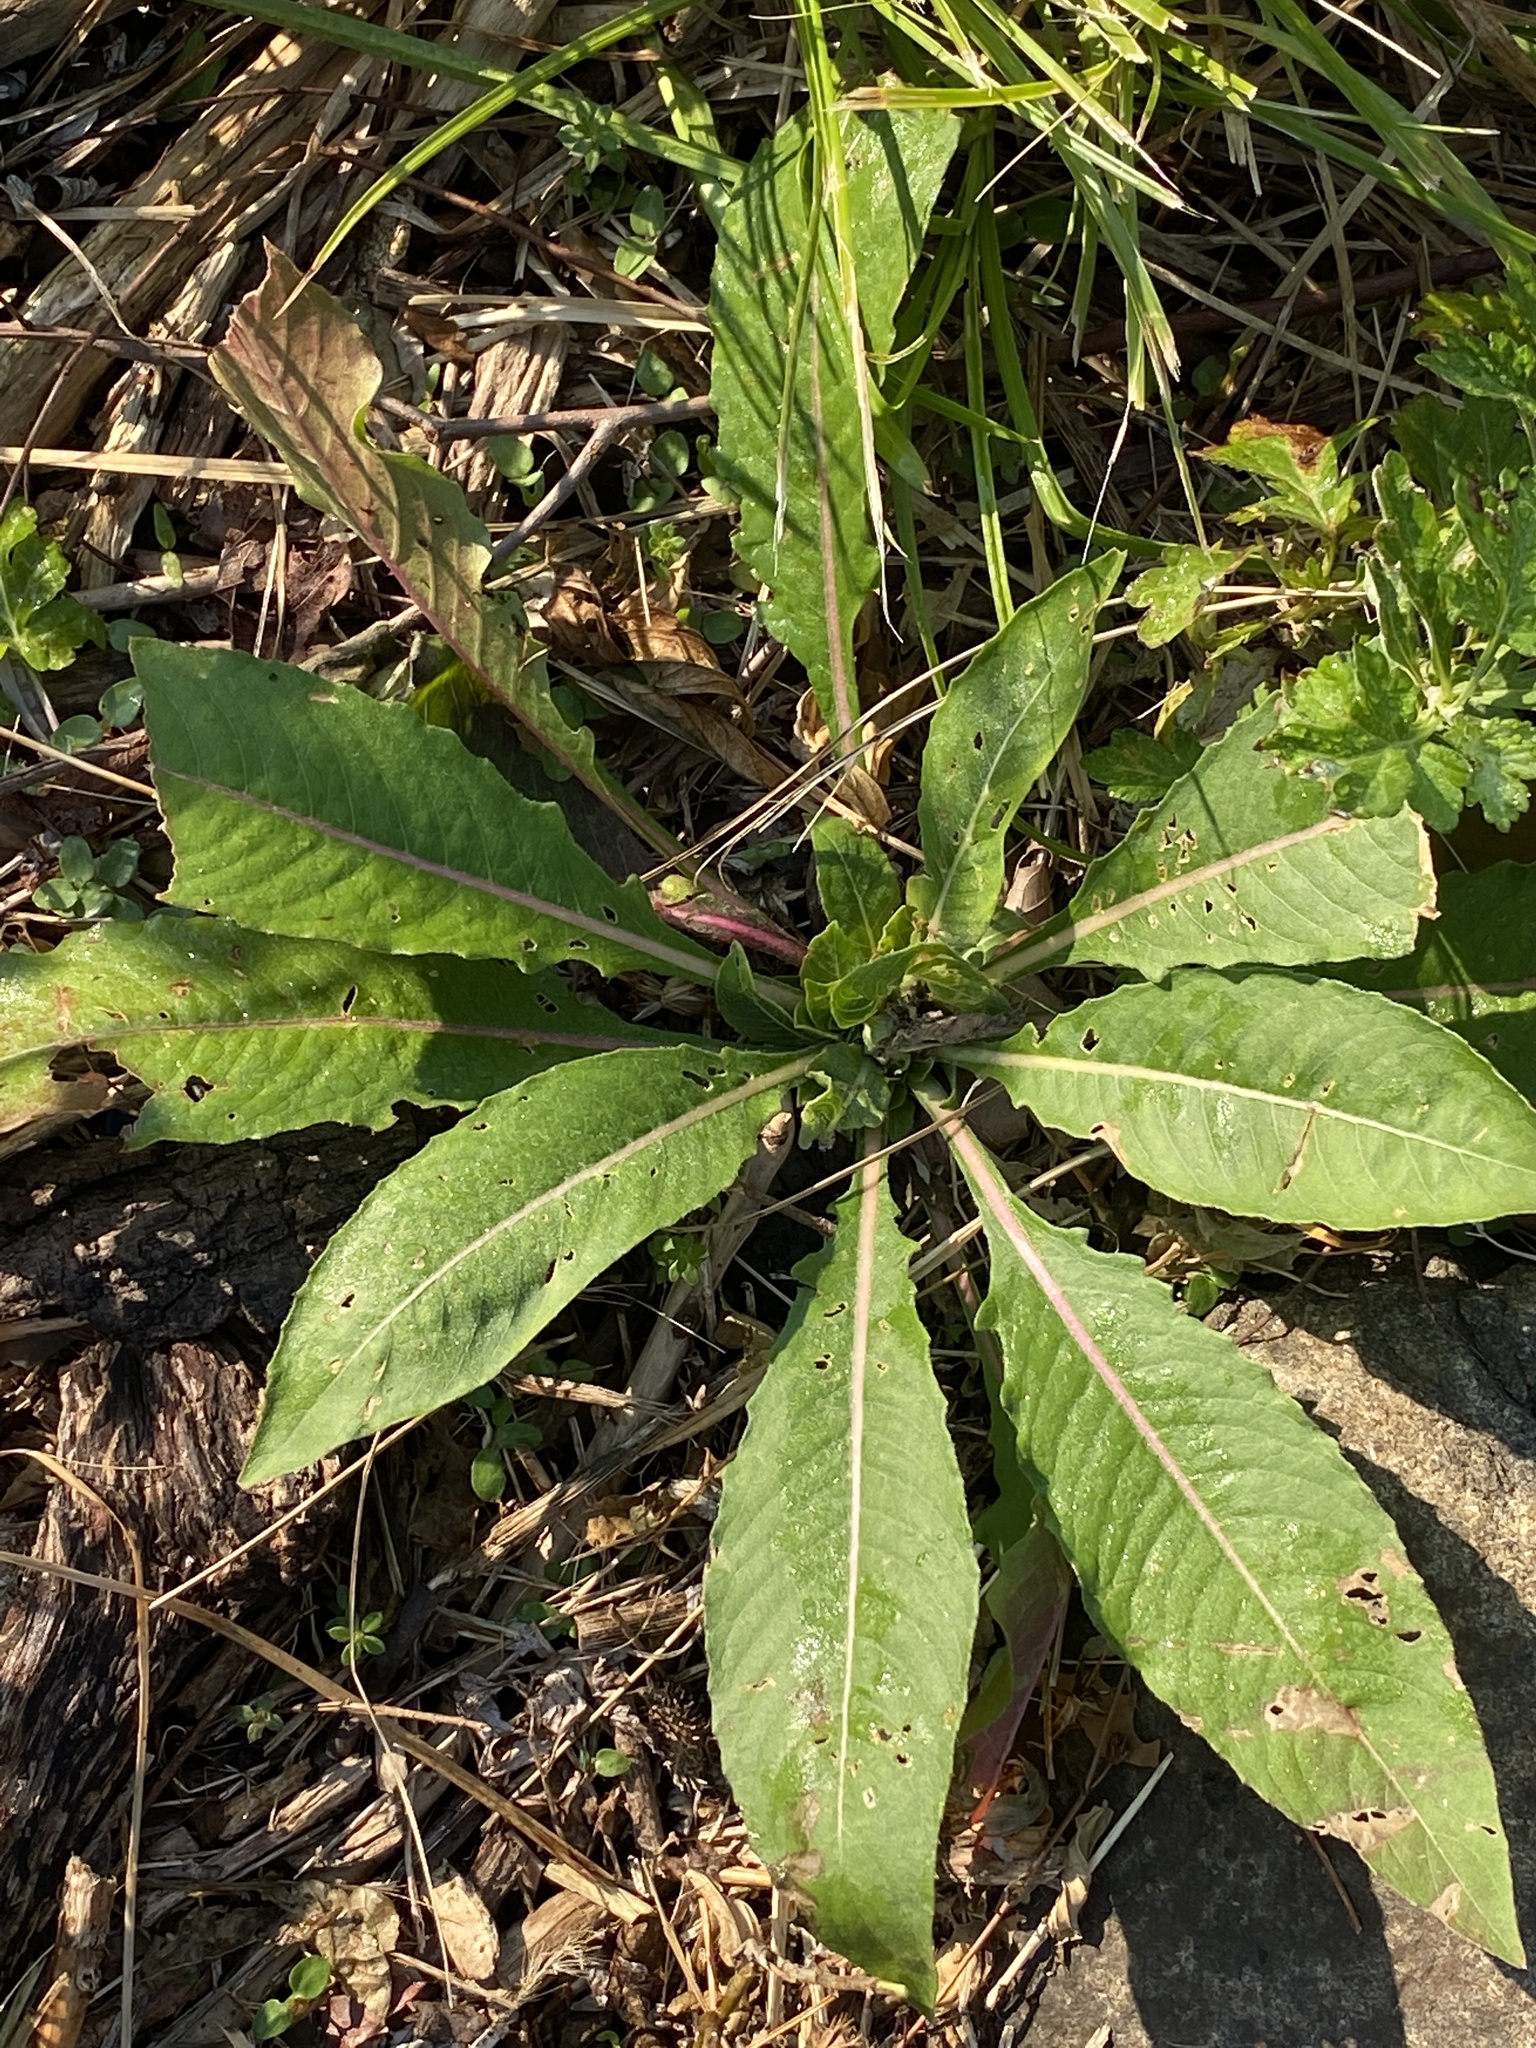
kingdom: Plantae
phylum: Tracheophyta
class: Magnoliopsida
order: Myrtales
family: Onagraceae
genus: Oenothera
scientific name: Oenothera biennis
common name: Common evening-primrose
